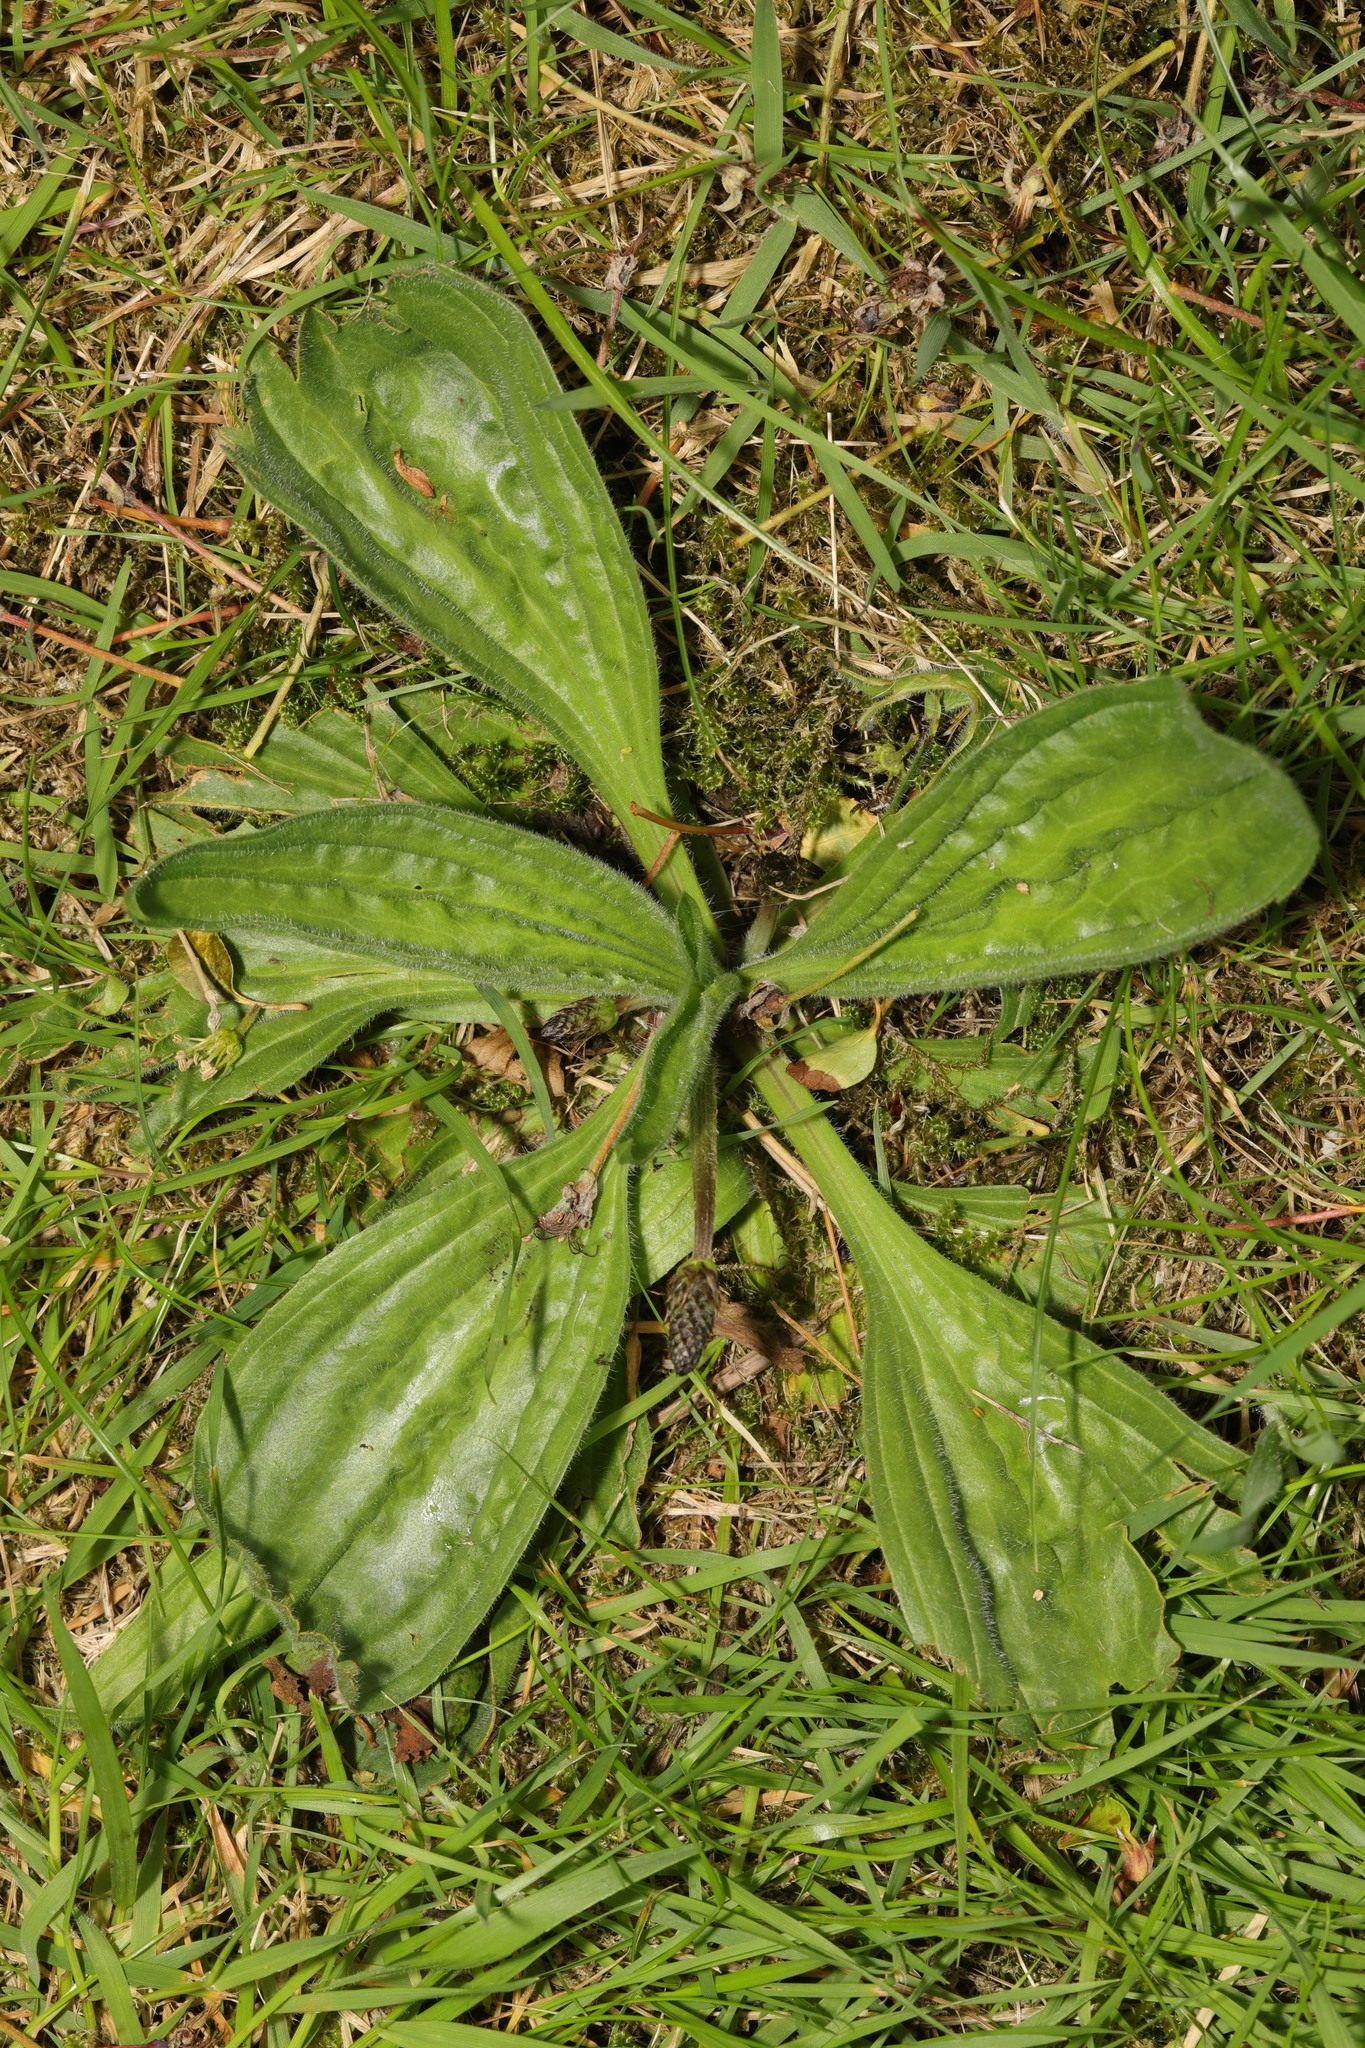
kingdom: Plantae
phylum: Tracheophyta
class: Magnoliopsida
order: Lamiales
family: Plantaginaceae
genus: Plantago
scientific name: Plantago media
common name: Hoary plantain
